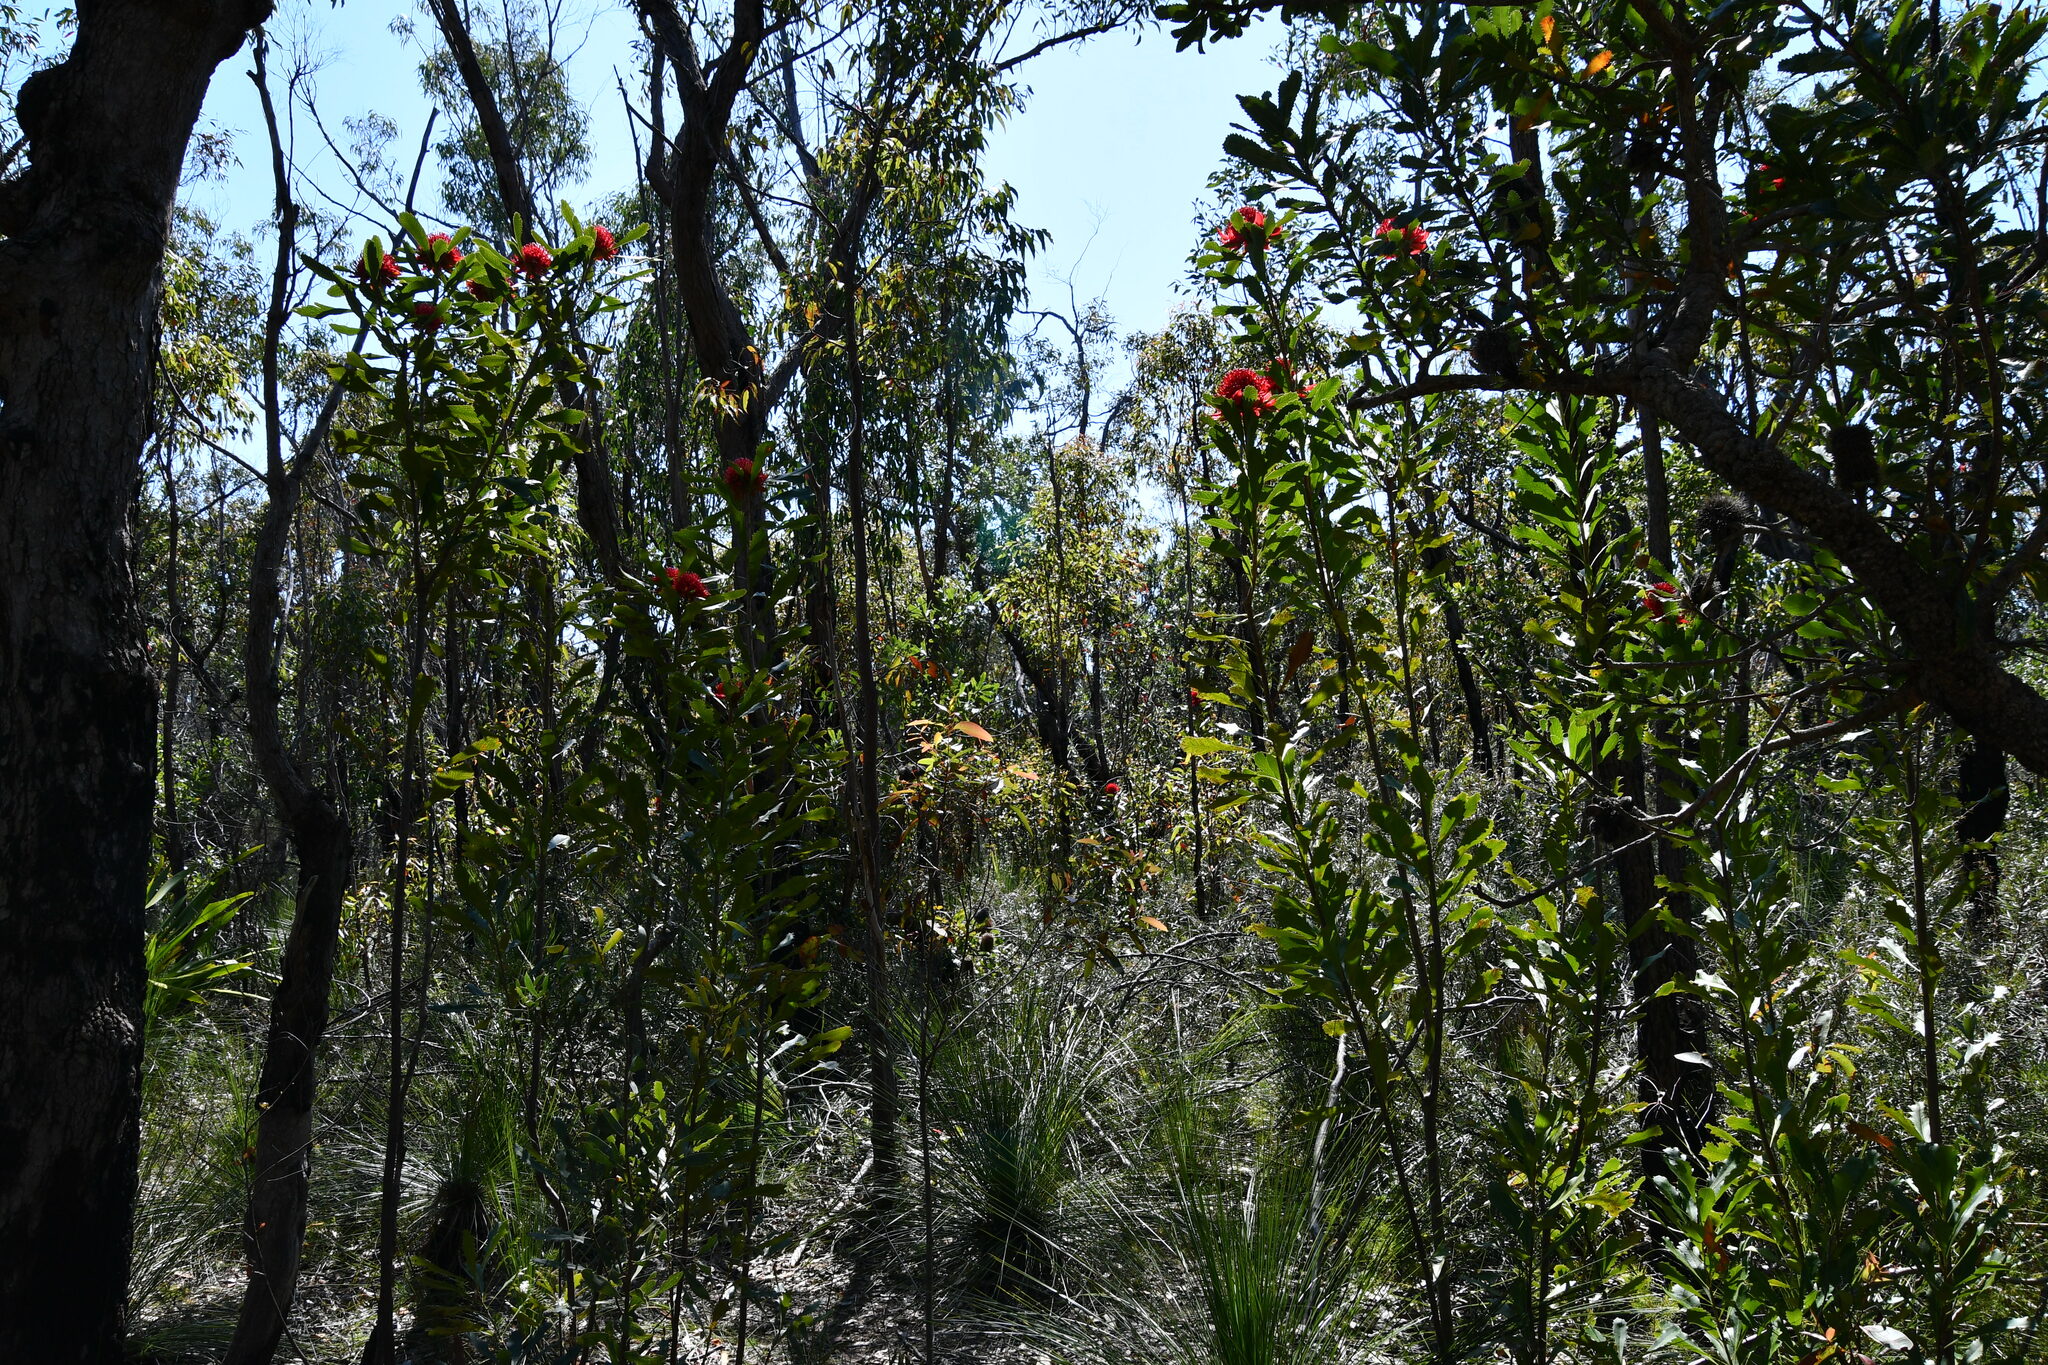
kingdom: Plantae
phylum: Tracheophyta
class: Magnoliopsida
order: Proteales
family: Proteaceae
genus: Telopea
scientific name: Telopea speciosissima
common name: New south wales waratah
